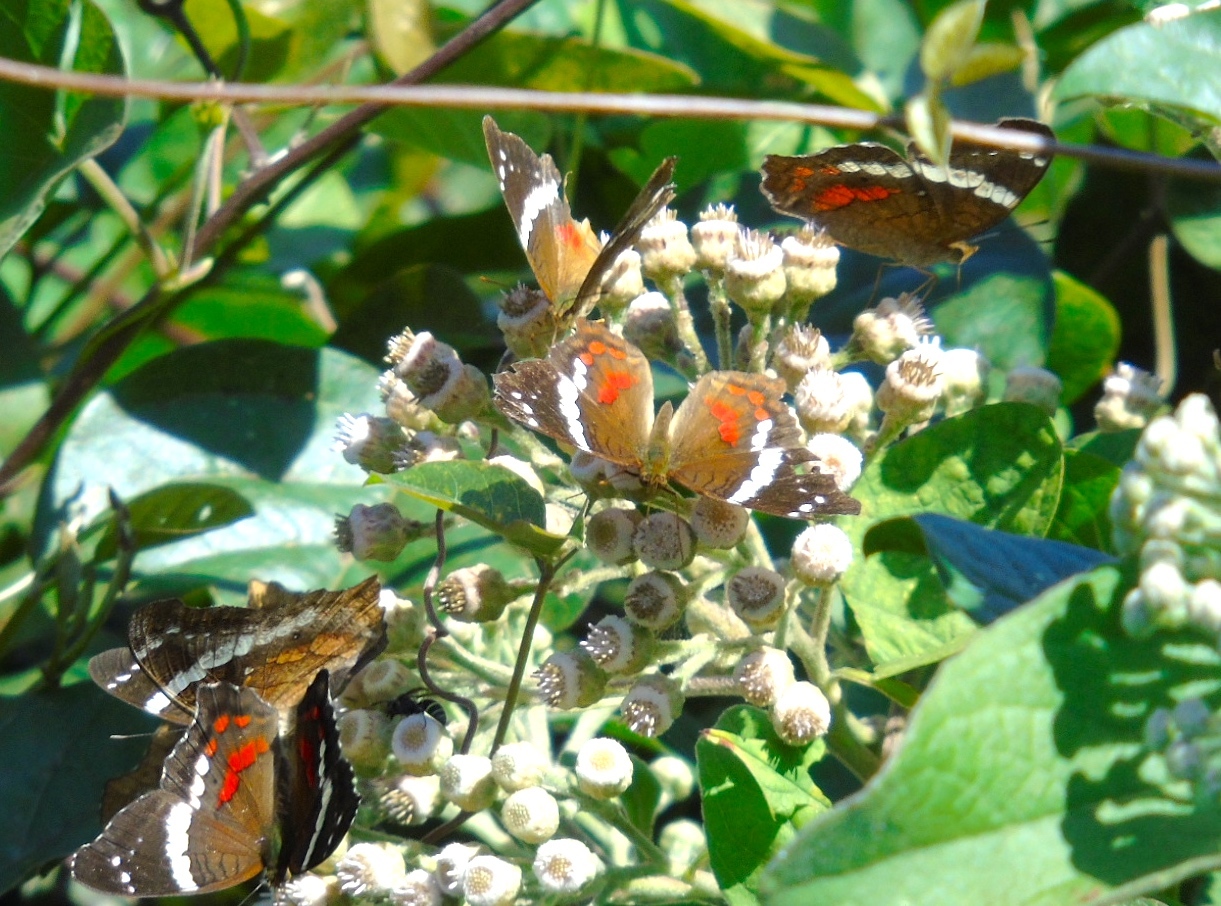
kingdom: Animalia
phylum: Arthropoda
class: Insecta
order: Lepidoptera
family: Nymphalidae
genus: Anartia
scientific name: Anartia fatima
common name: Banded peacock
